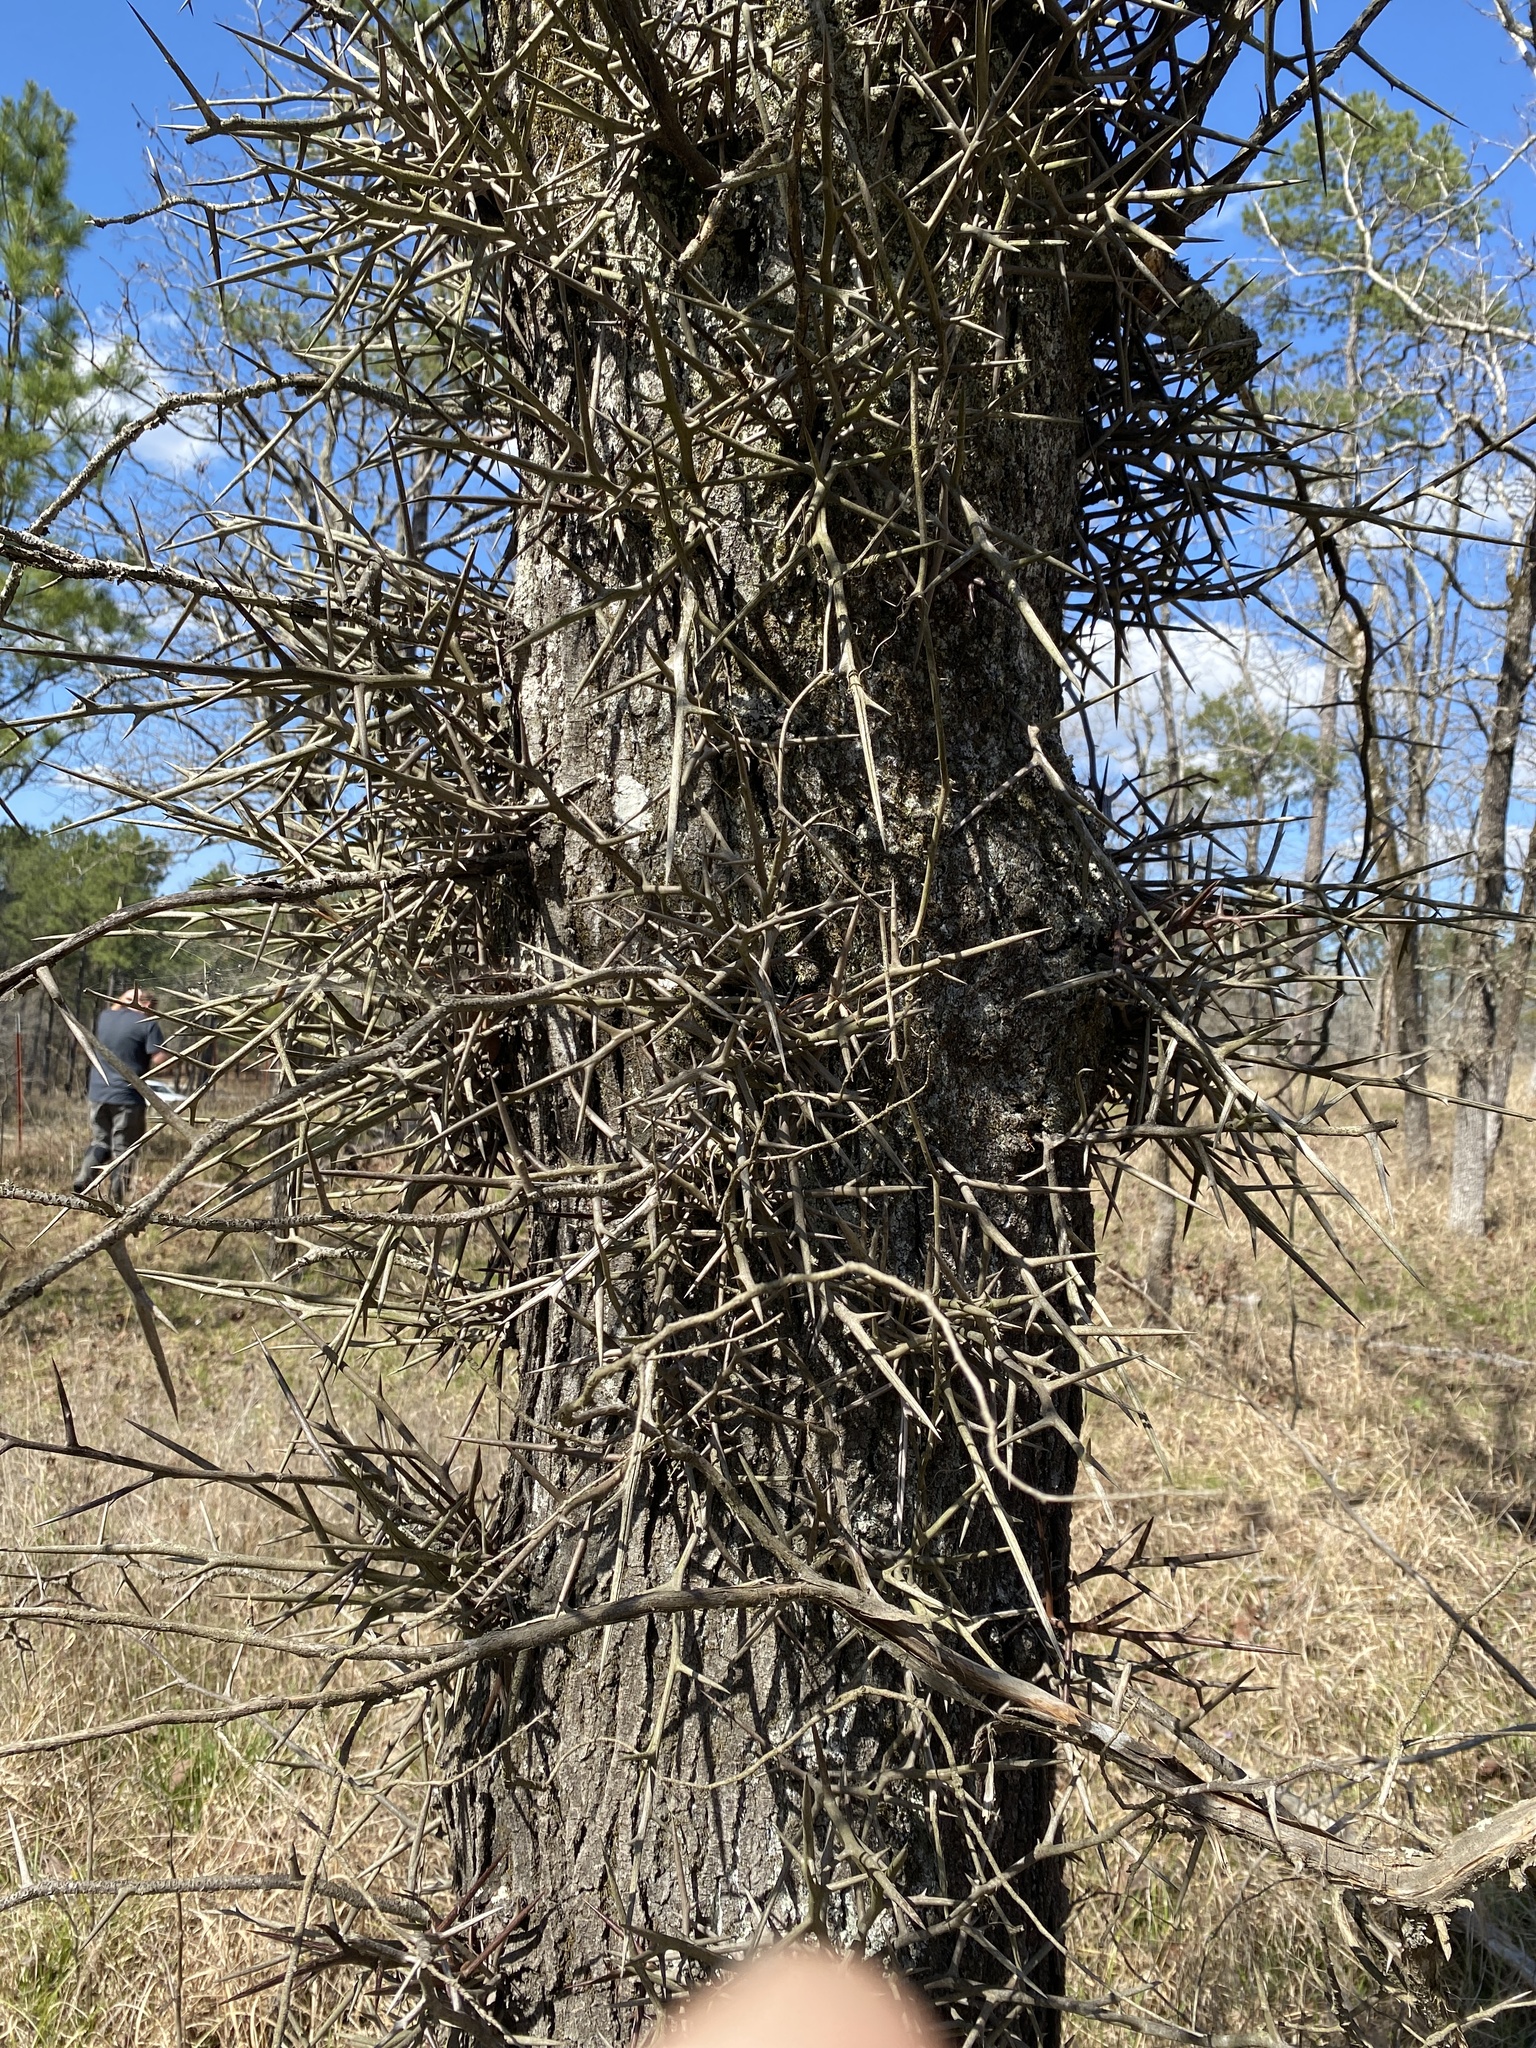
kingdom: Plantae
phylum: Tracheophyta
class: Magnoliopsida
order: Fabales
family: Fabaceae
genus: Gleditsia
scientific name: Gleditsia triacanthos
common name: Common honeylocust
